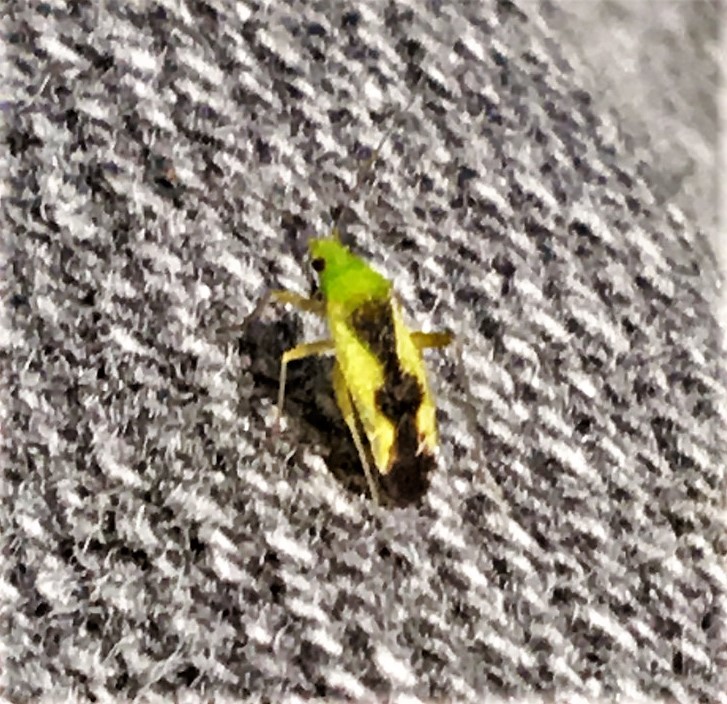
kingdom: Animalia
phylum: Arthropoda
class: Insecta
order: Hemiptera
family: Miridae
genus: Reuteroscopus
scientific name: Reuteroscopus ornatus
